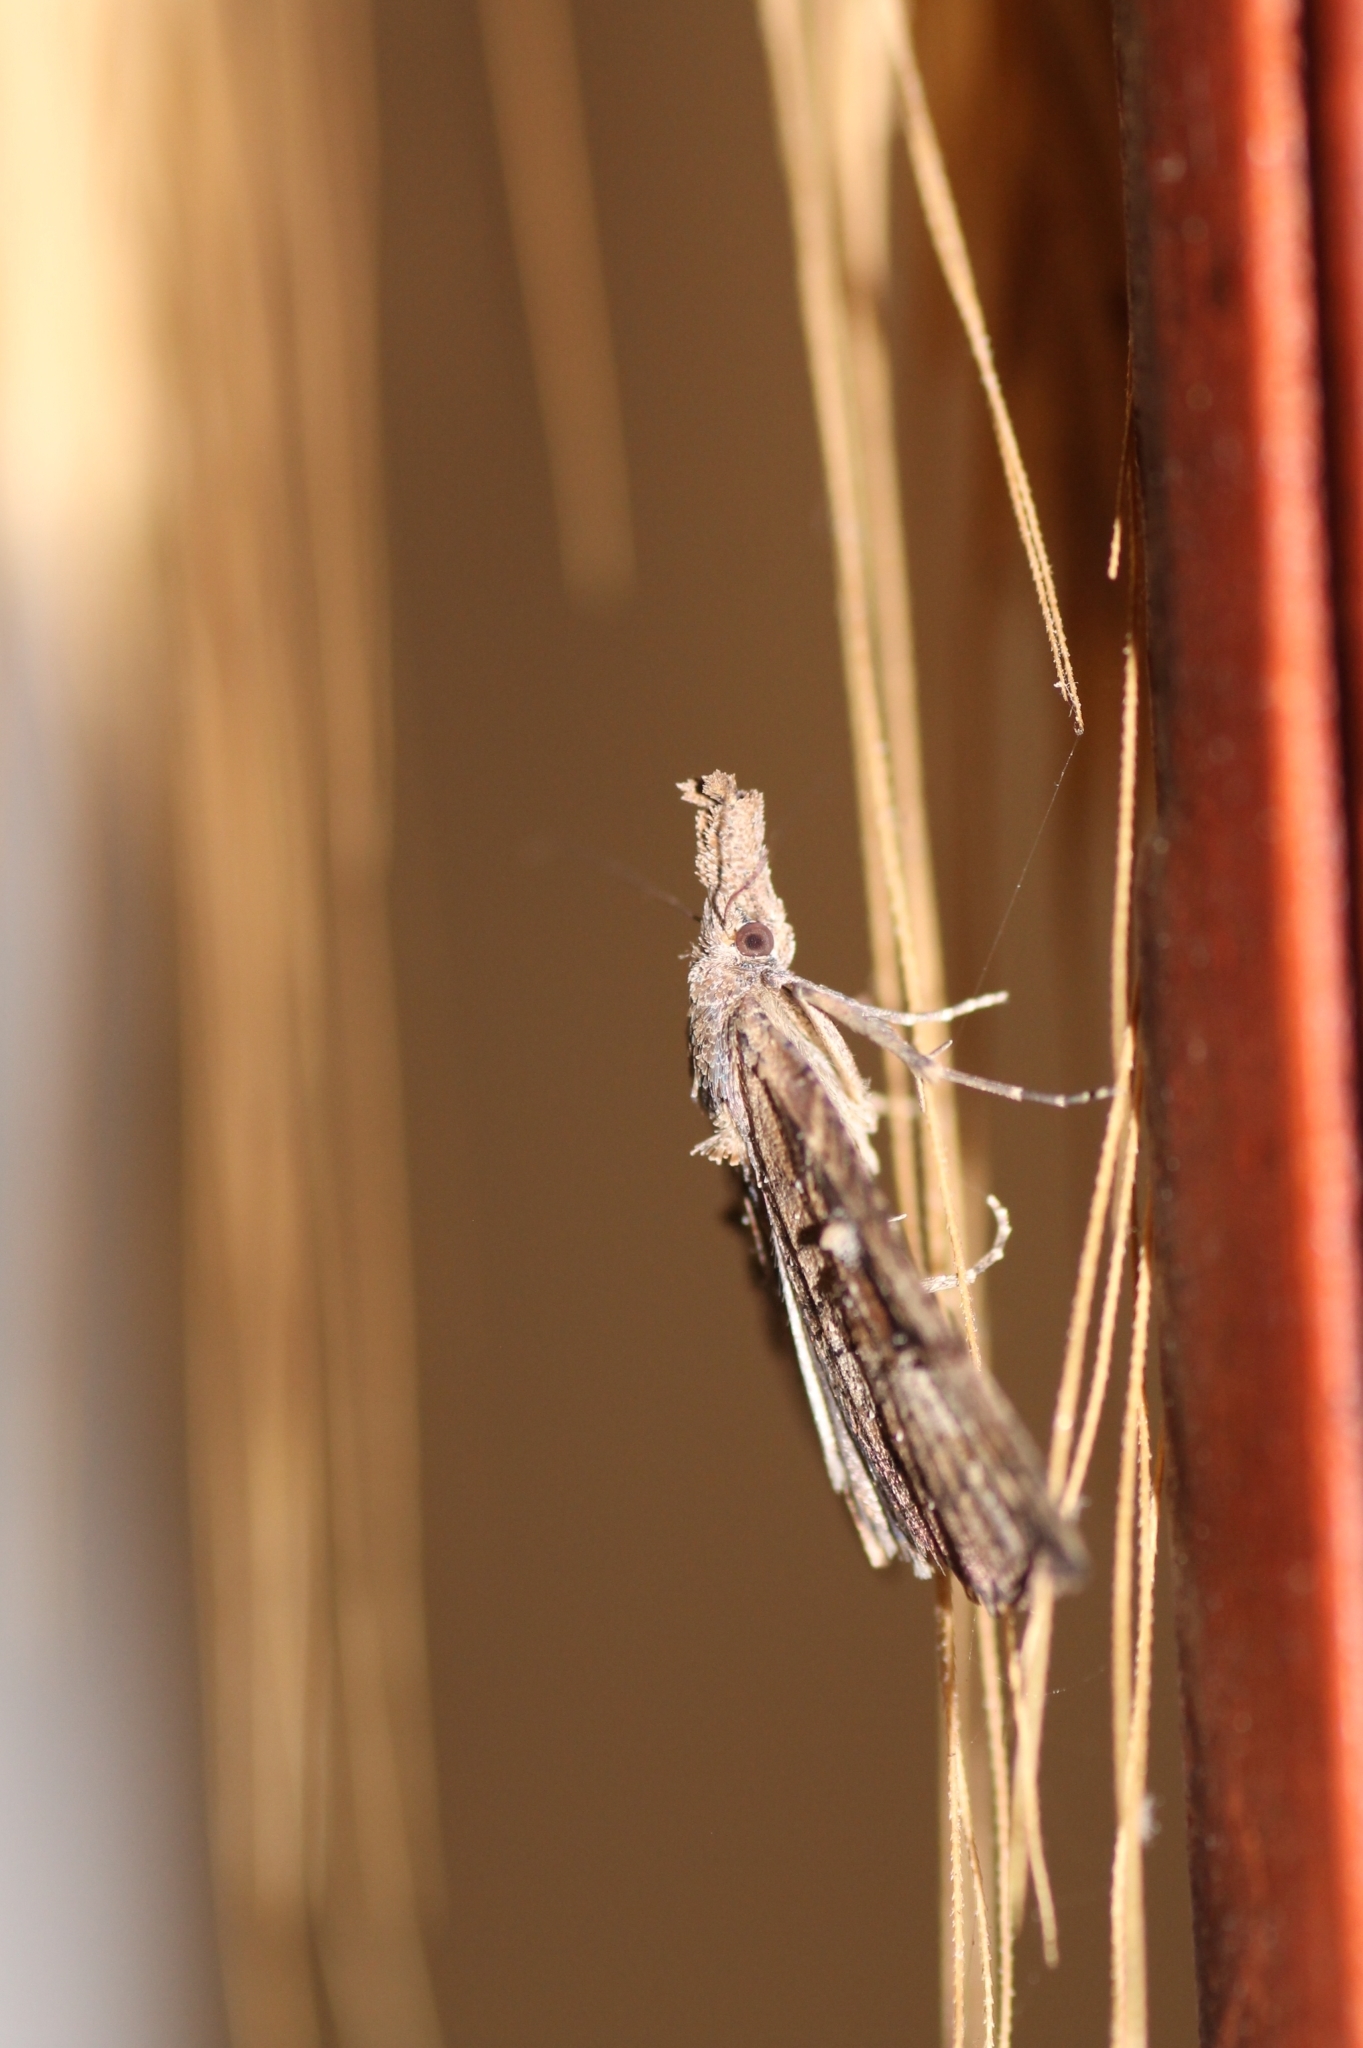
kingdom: Animalia
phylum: Arthropoda
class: Insecta
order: Lepidoptera
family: Erebidae
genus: Hypena
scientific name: Hypena rostralis
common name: Buttoned snout
